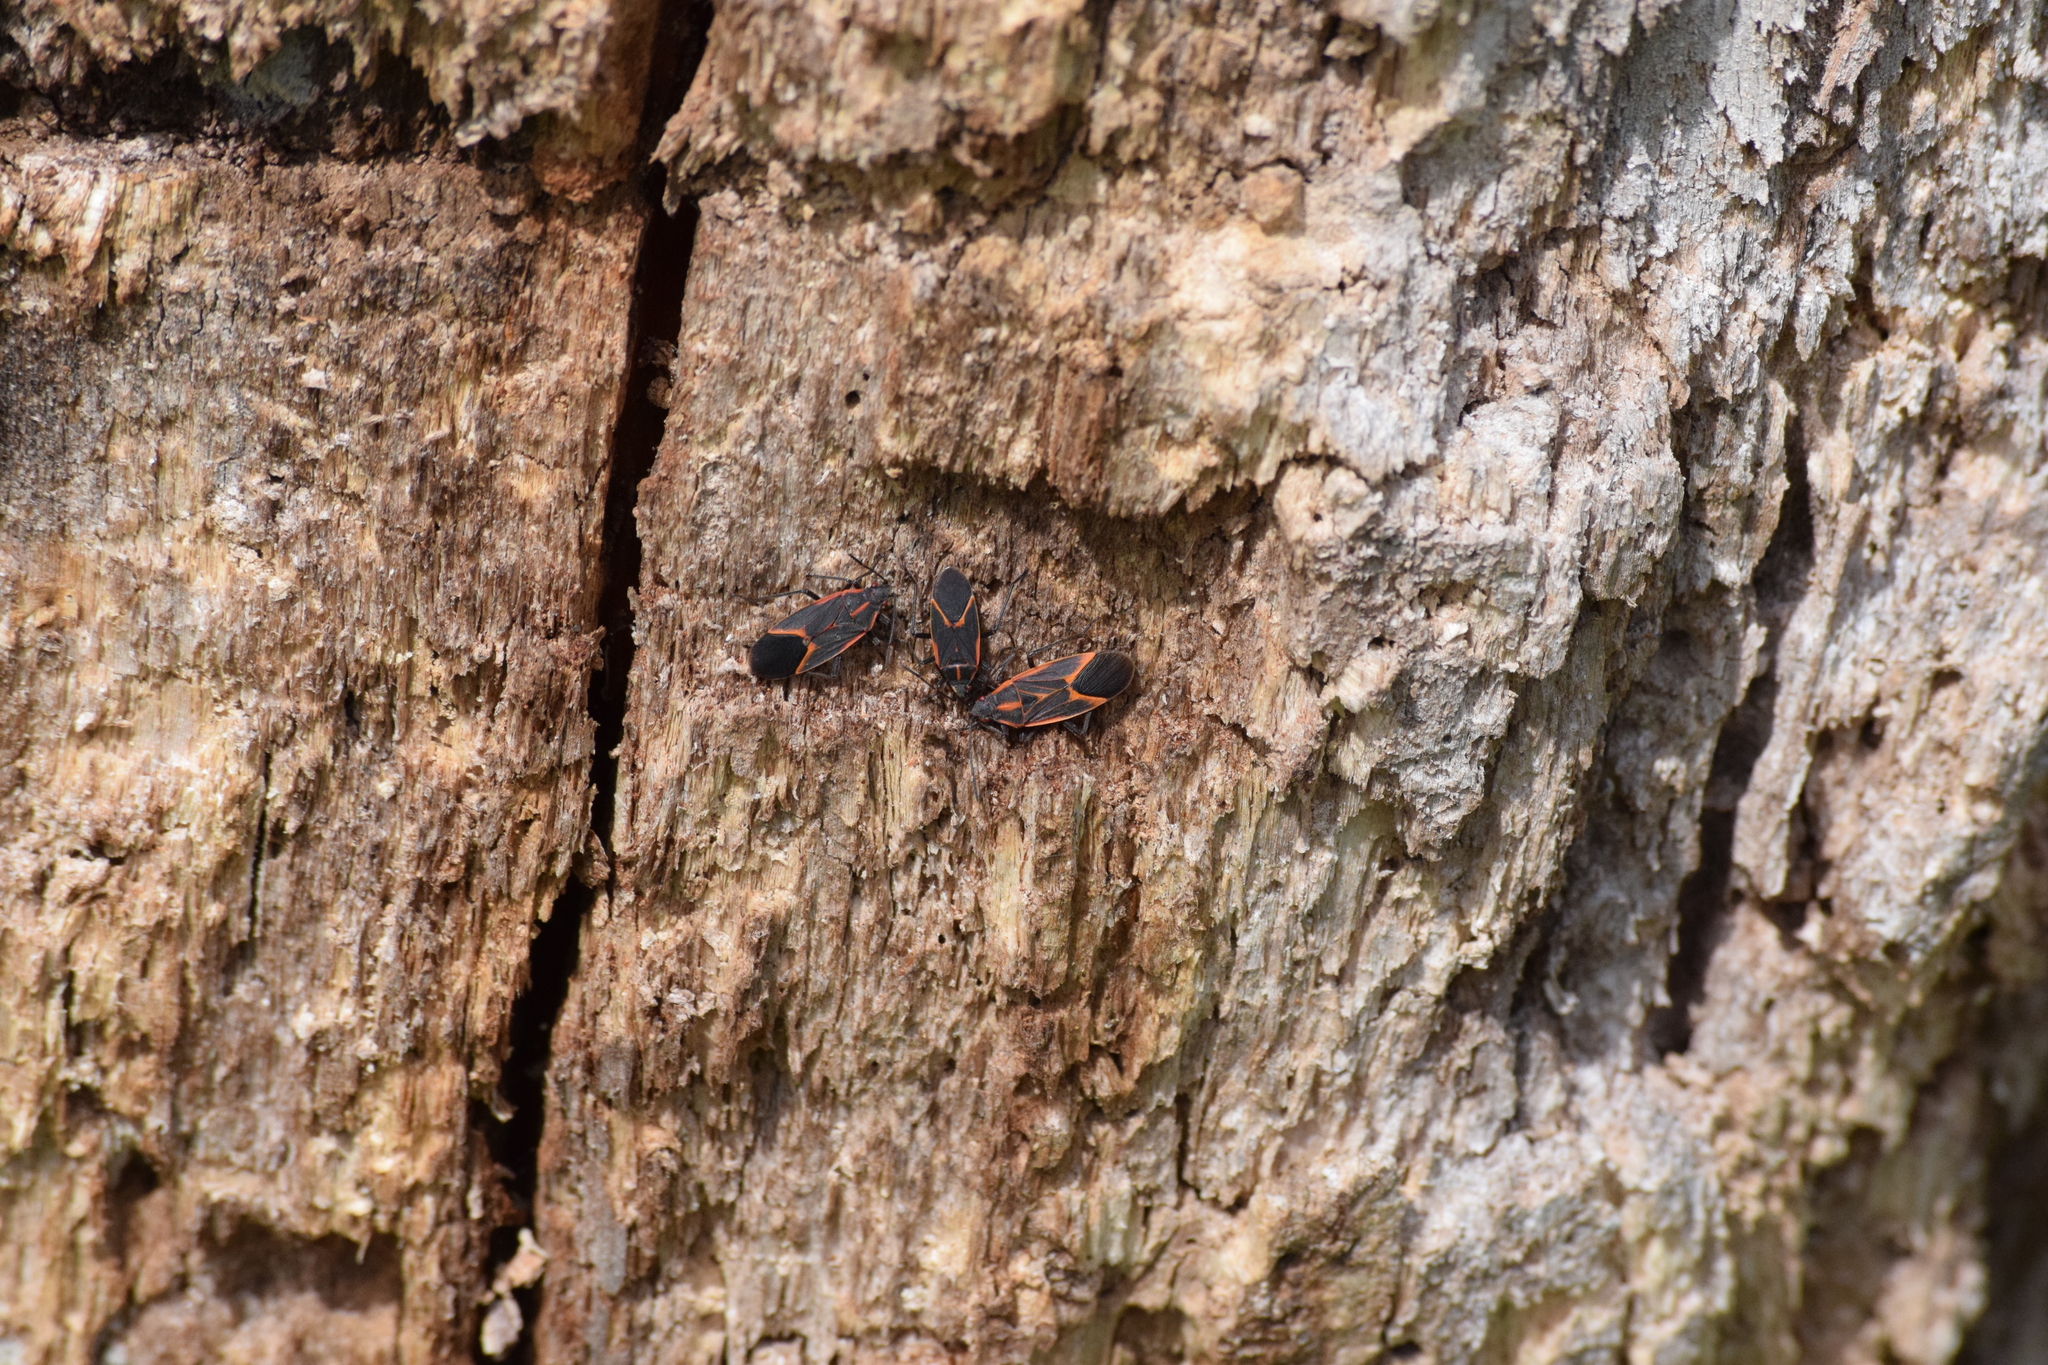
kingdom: Animalia
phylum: Arthropoda
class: Insecta
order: Hemiptera
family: Rhopalidae
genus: Boisea
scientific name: Boisea trivittata
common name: Boxelder bug
